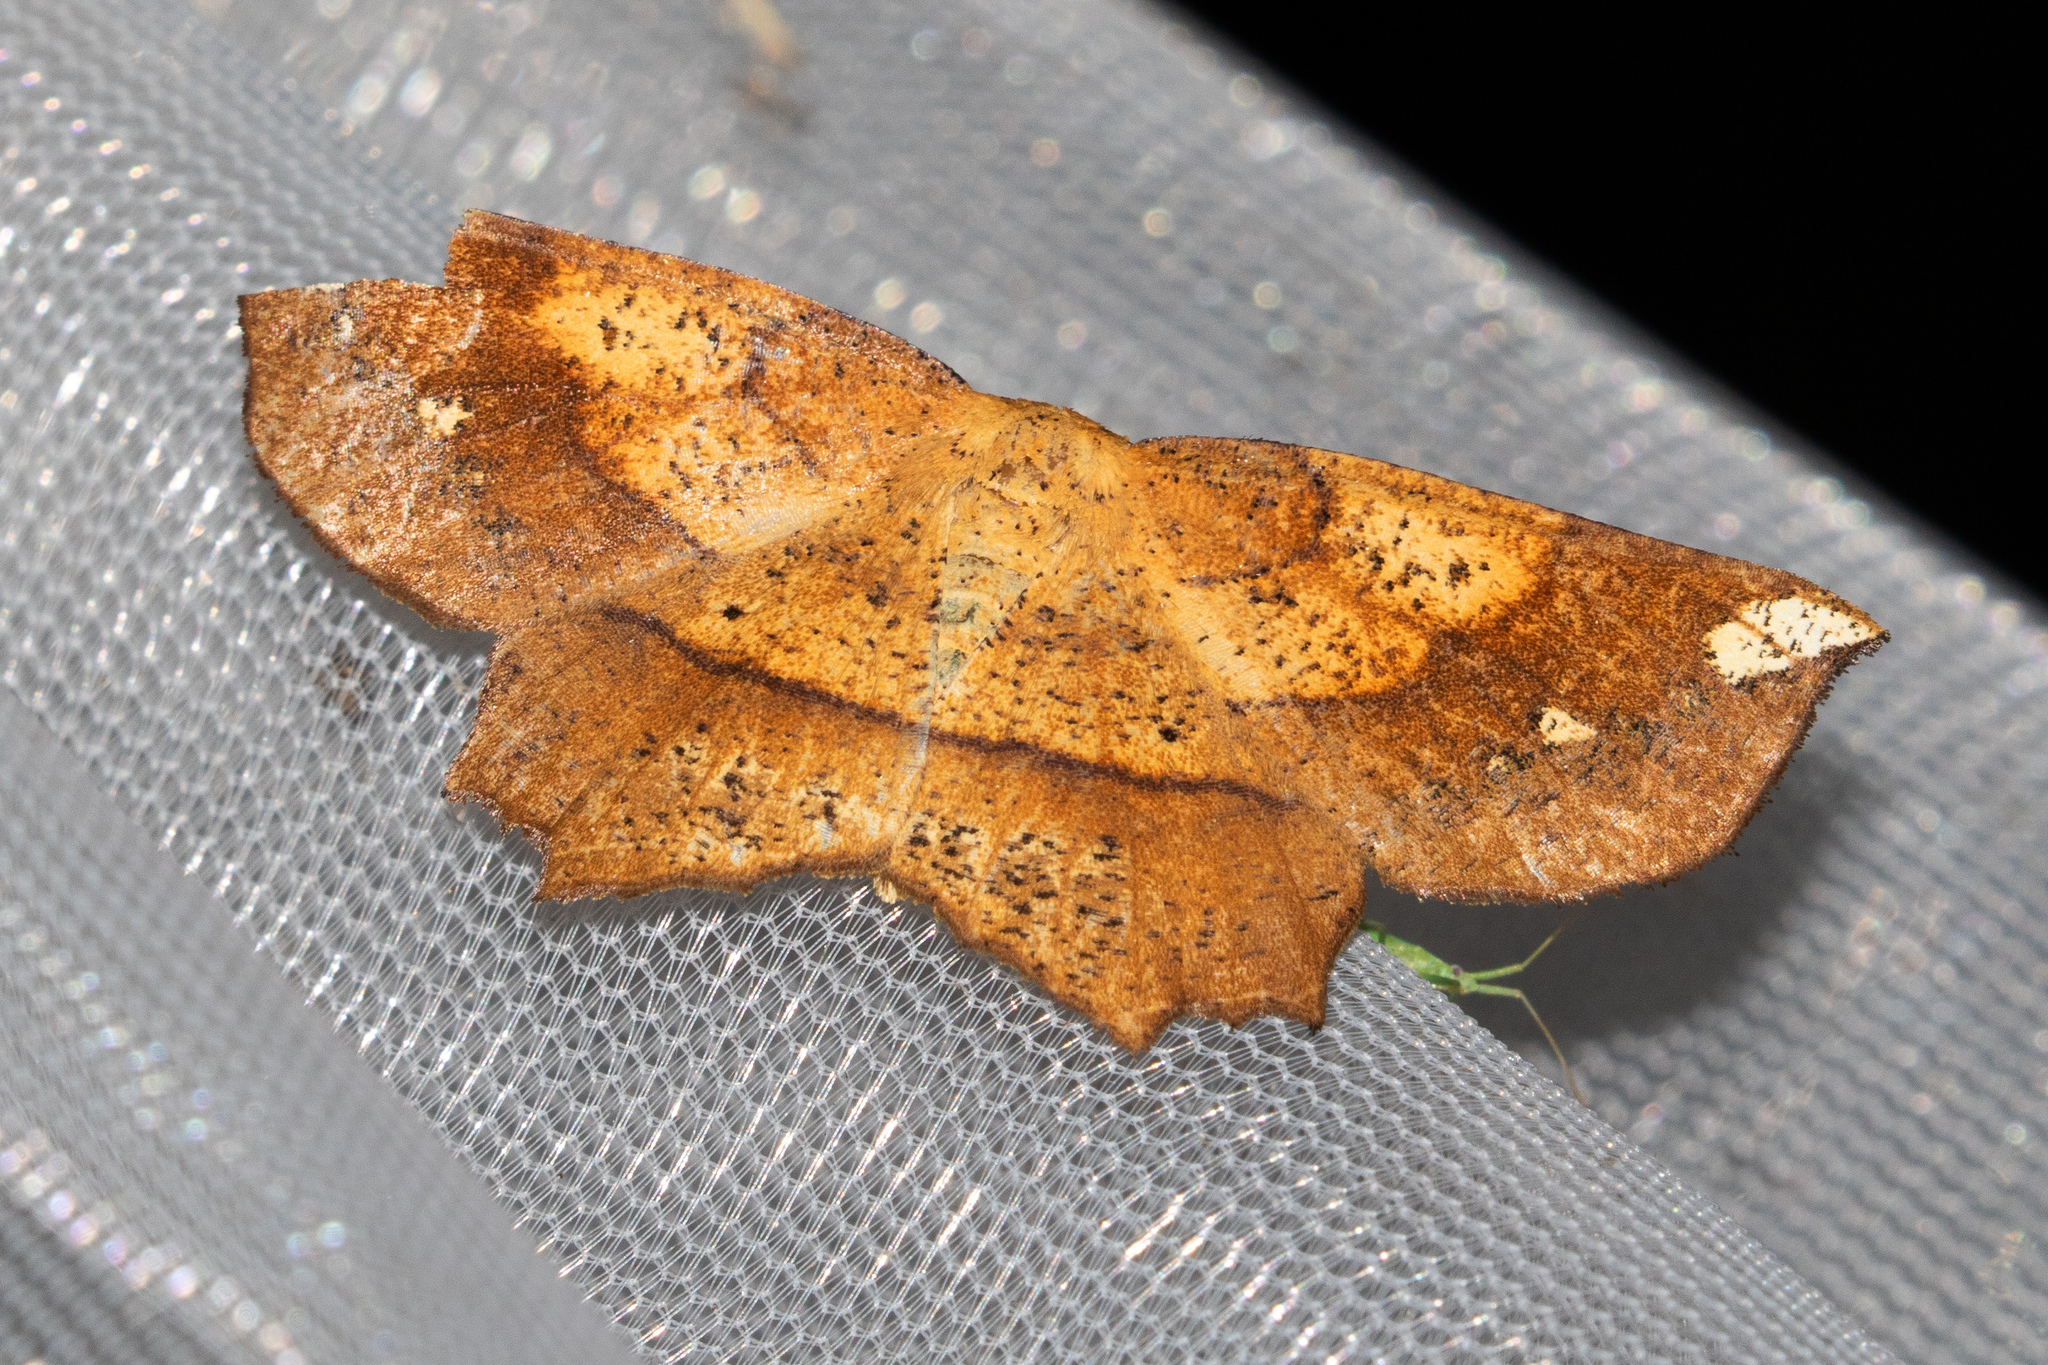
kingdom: Animalia
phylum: Arthropoda
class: Insecta
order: Lepidoptera
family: Geometridae
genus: Euchlaena
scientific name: Euchlaena amoenaria
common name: Deep yellow euchlaena
